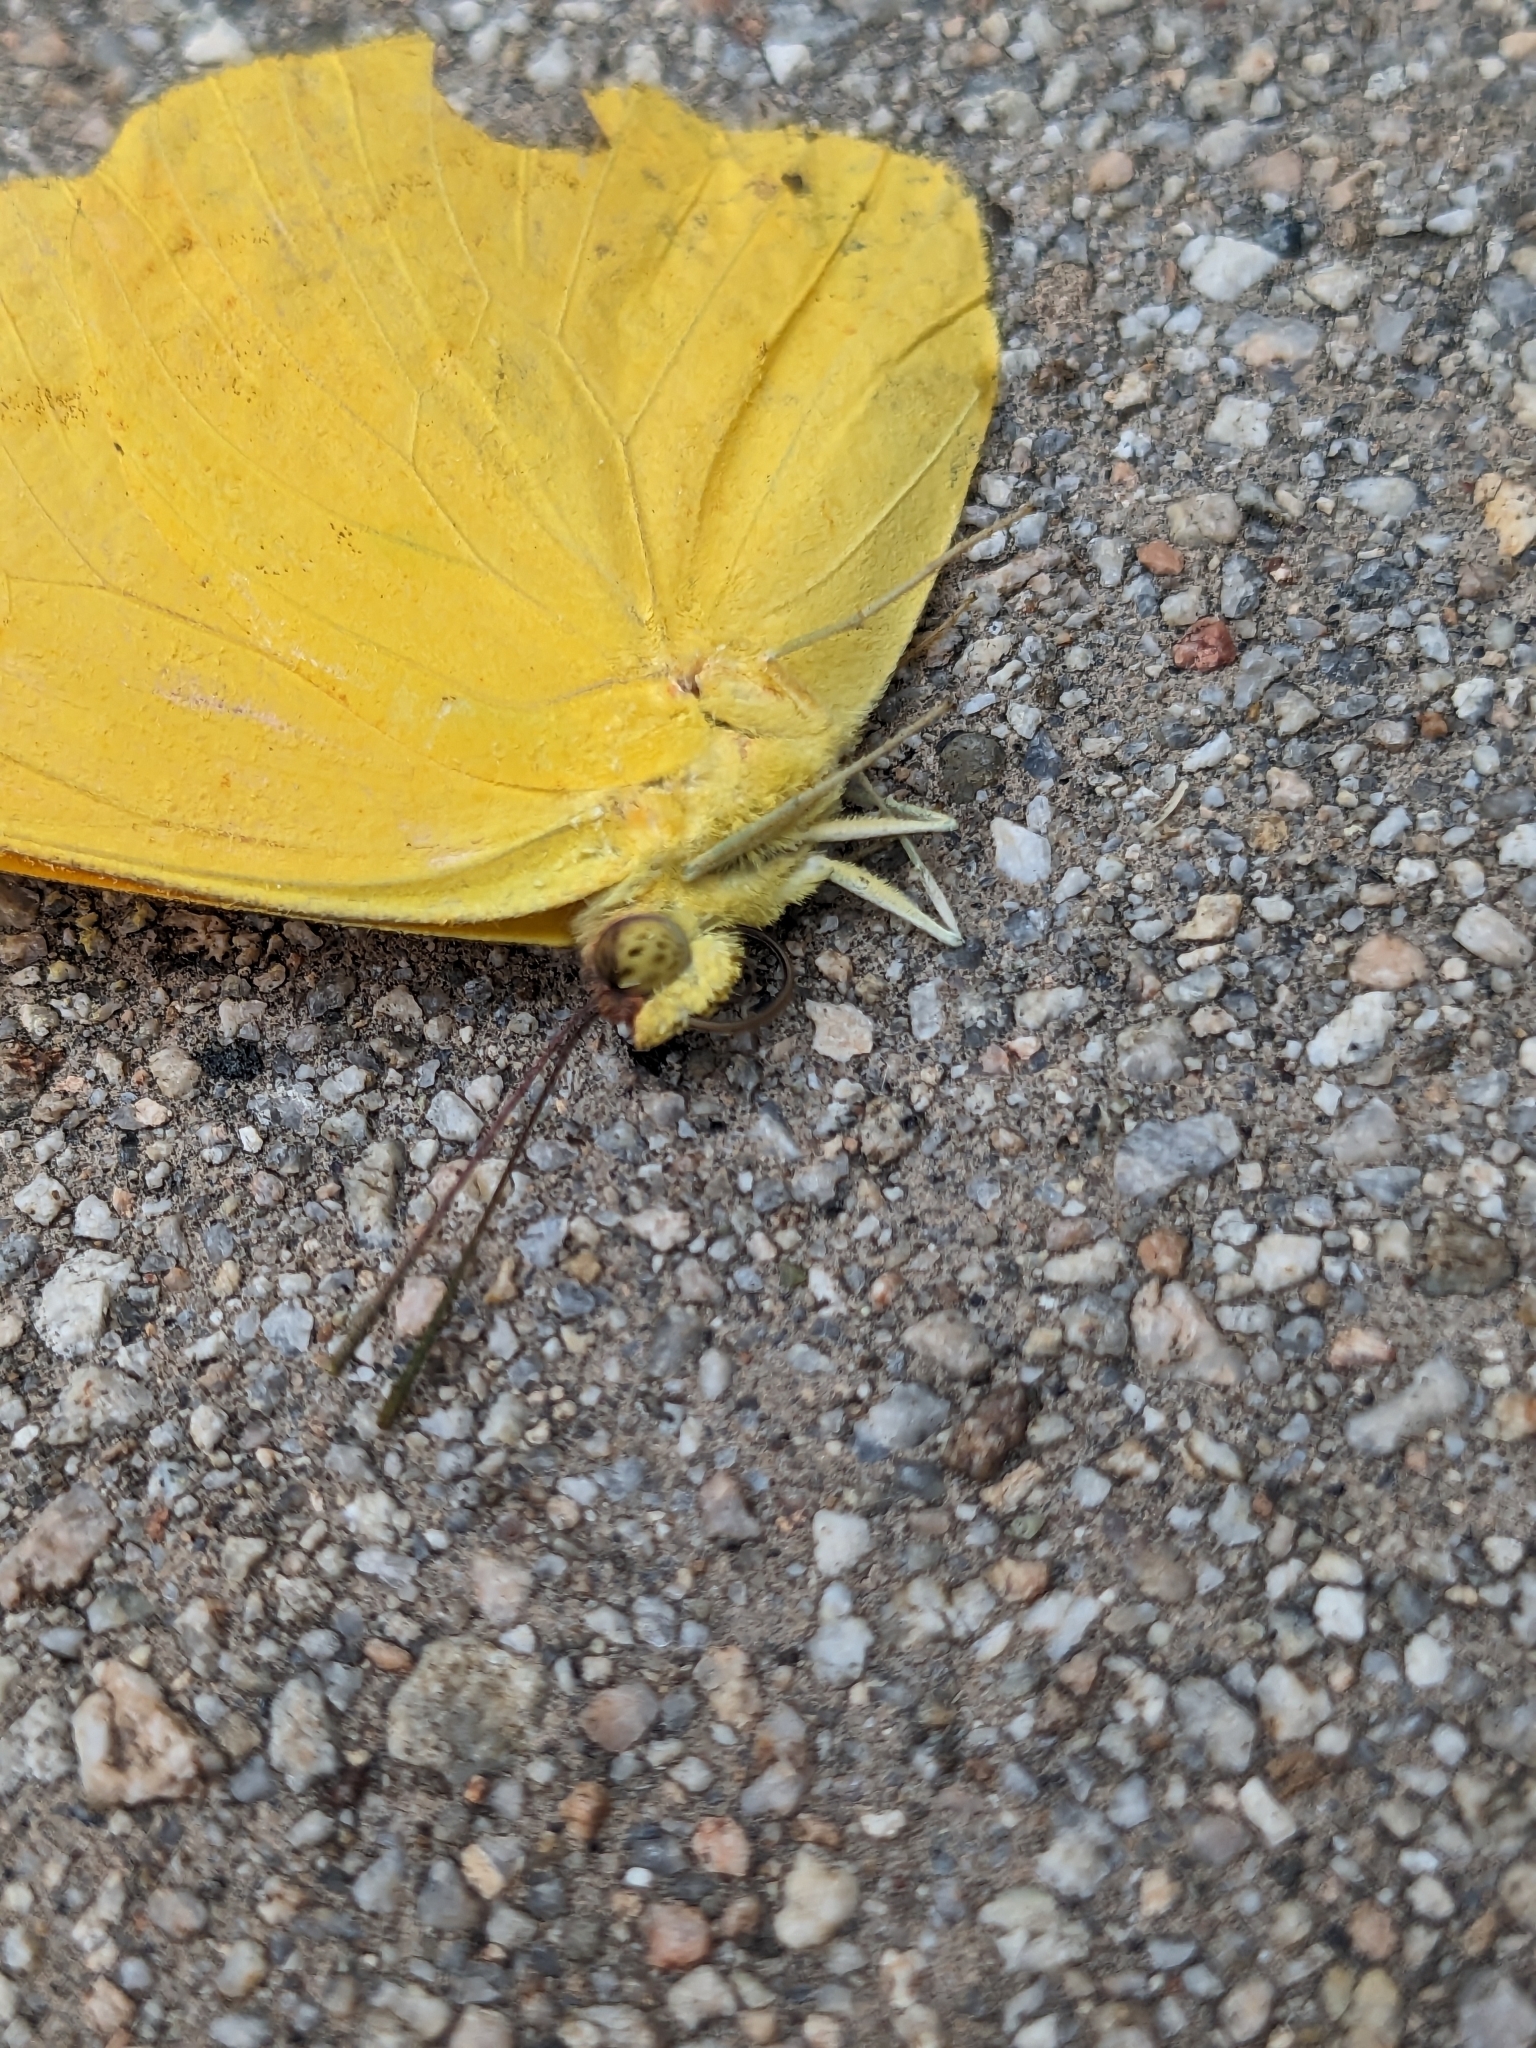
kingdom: Animalia
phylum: Arthropoda
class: Insecta
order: Lepidoptera
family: Pieridae
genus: Phoebis
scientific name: Phoebis agarithe
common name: Large orange sulphur
